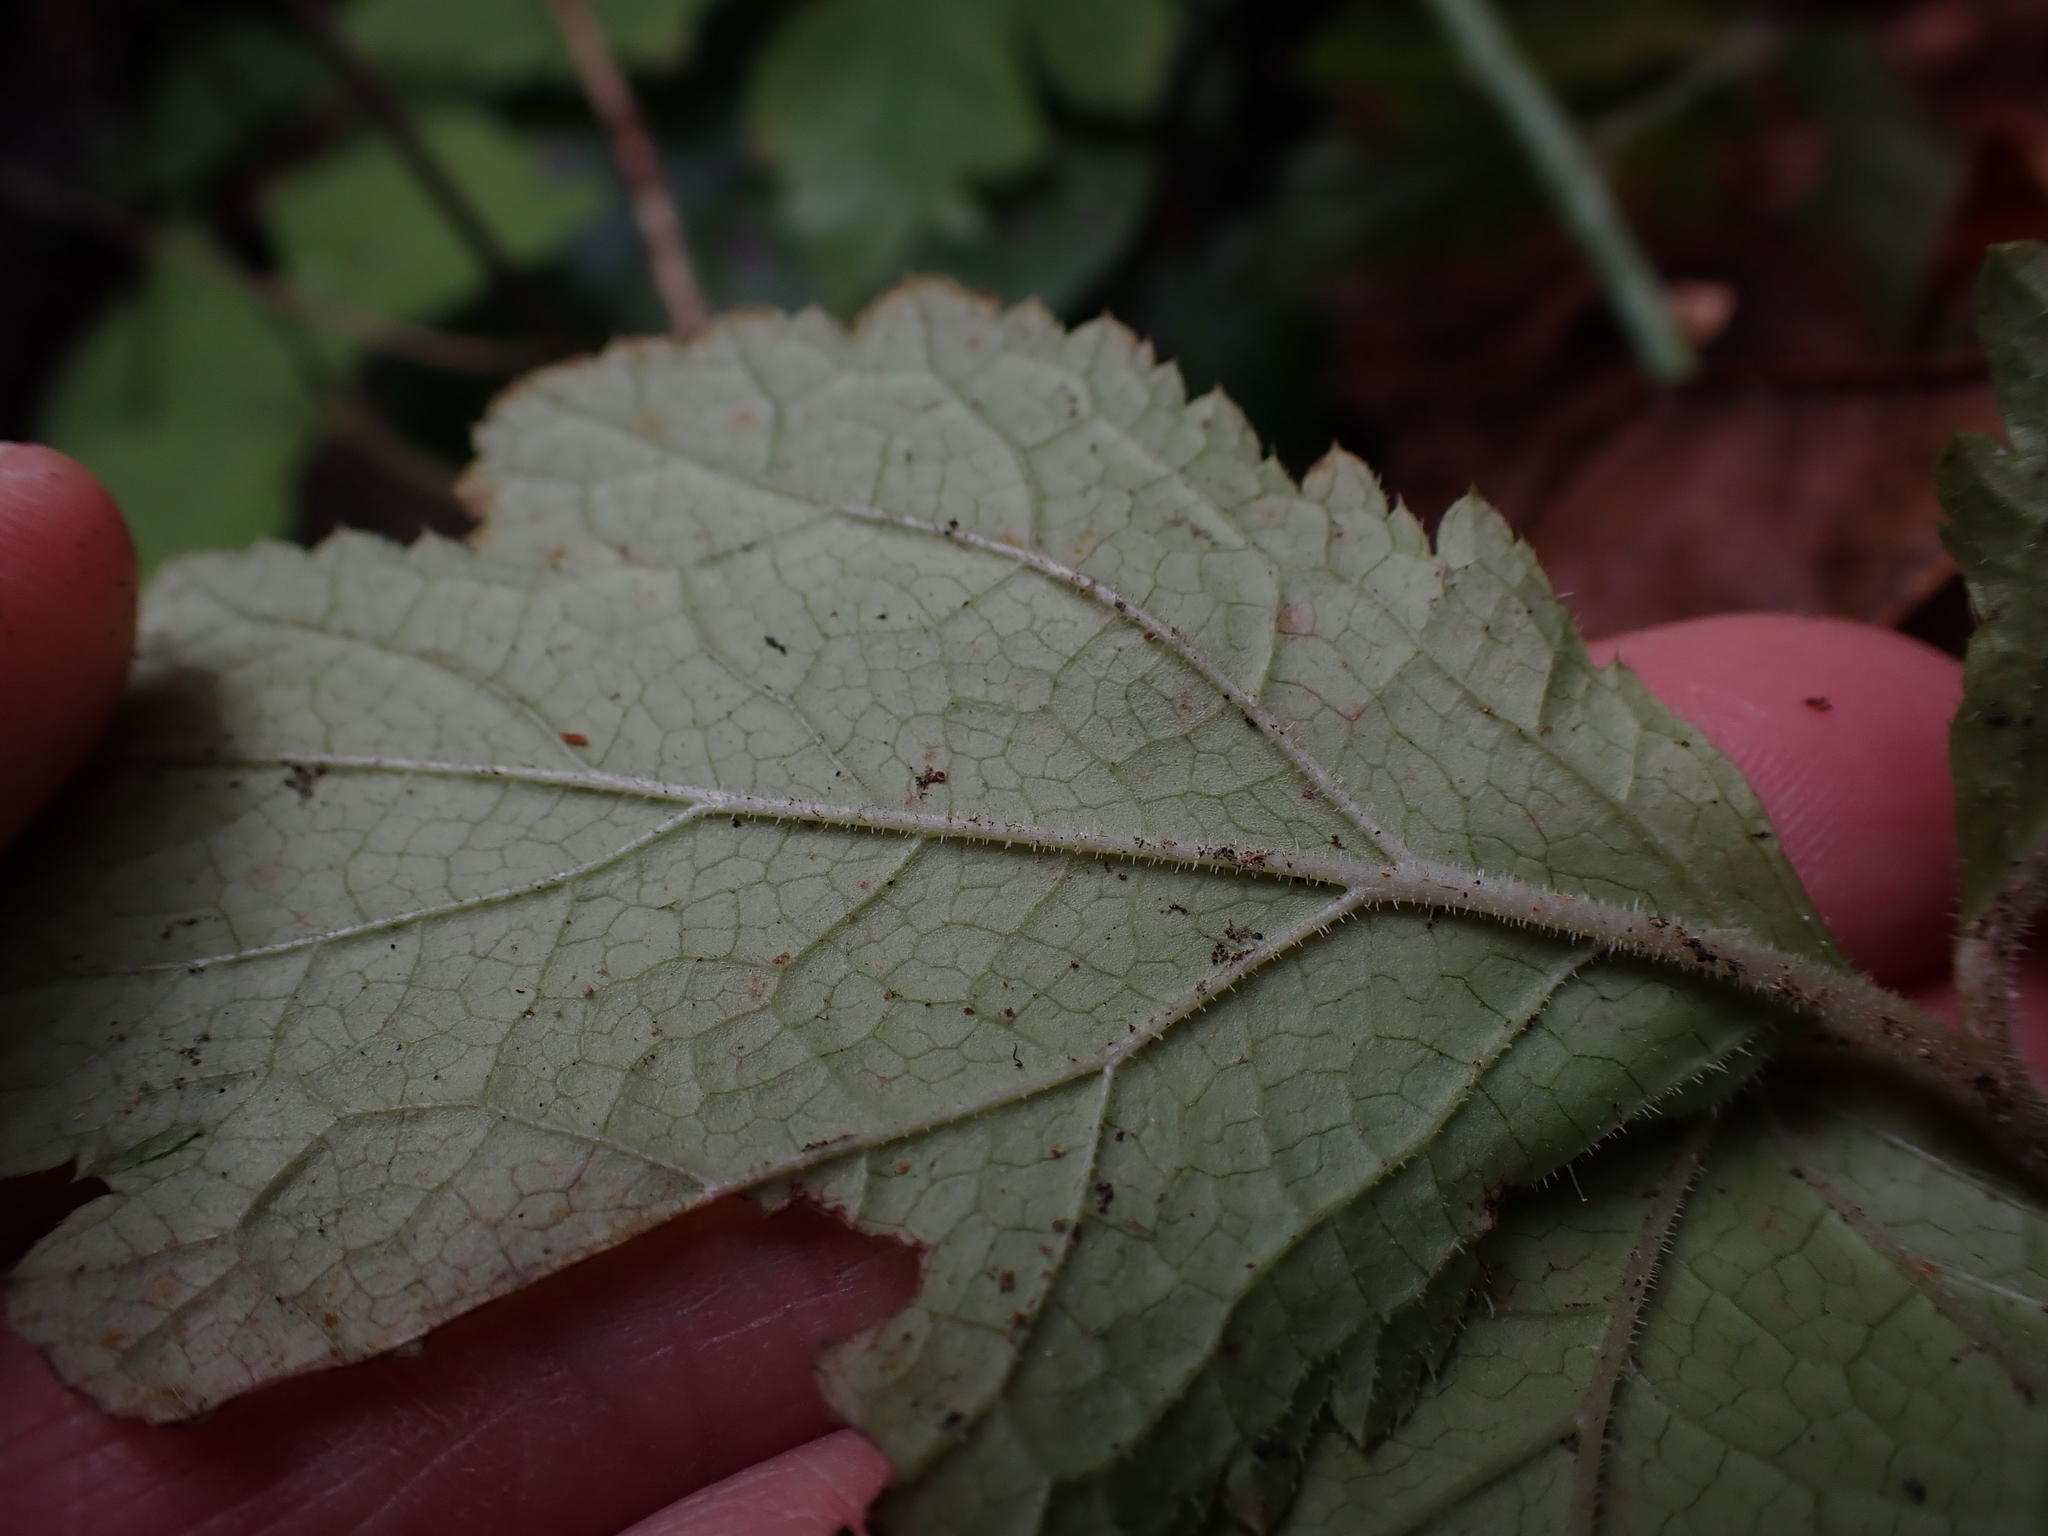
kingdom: Plantae
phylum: Tracheophyta
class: Magnoliopsida
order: Saxifragales
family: Saxifragaceae
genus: Tiarella
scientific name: Tiarella trifoliata
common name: Sugar-scoop
